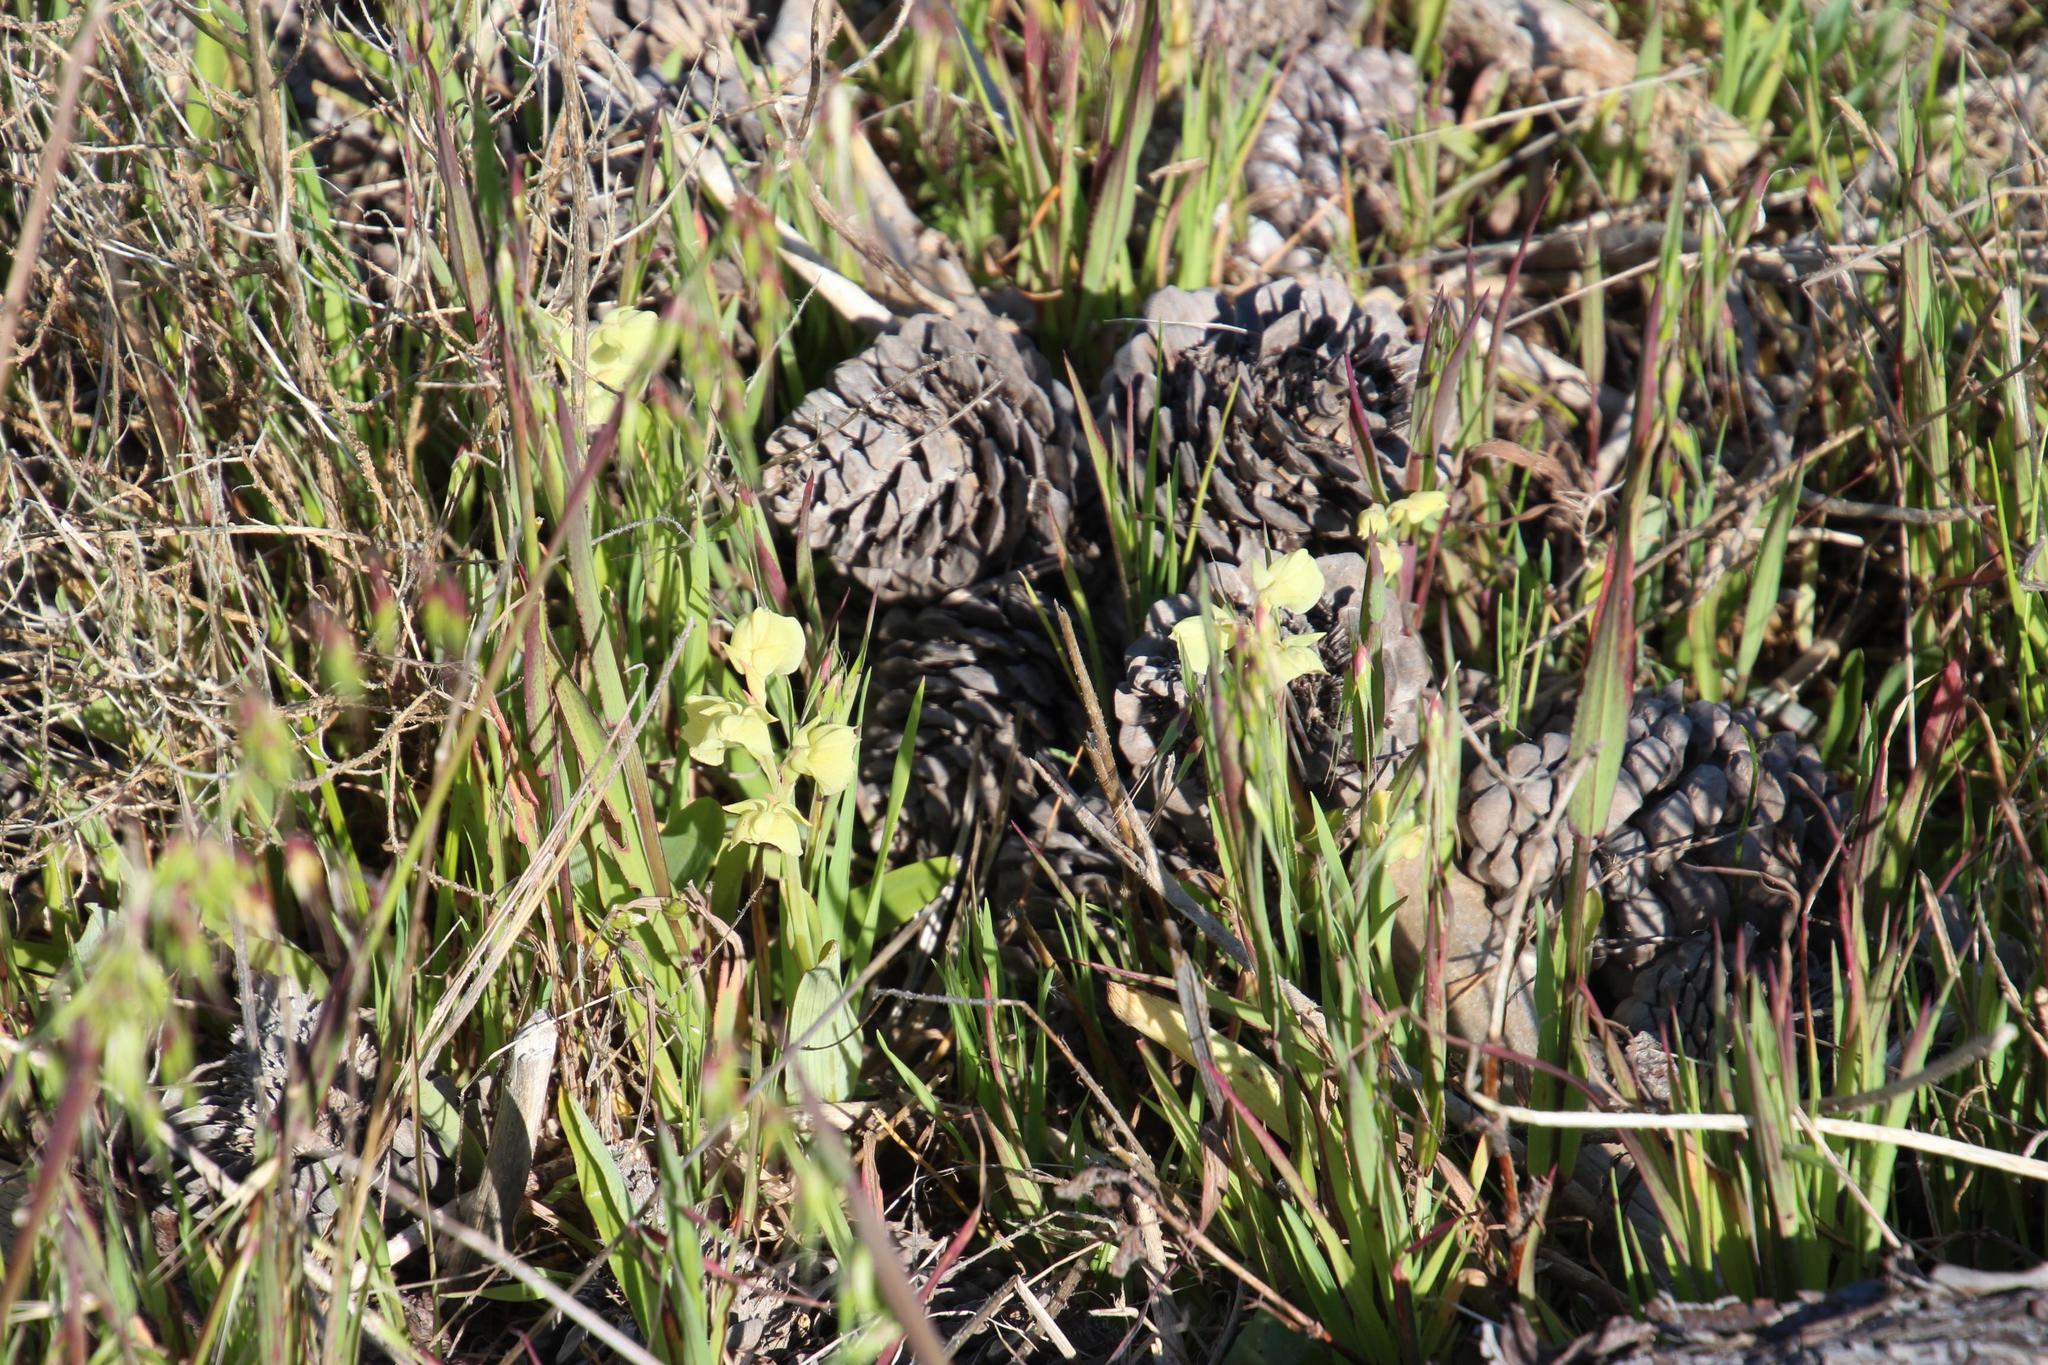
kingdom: Plantae
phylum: Tracheophyta
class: Liliopsida
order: Asparagales
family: Orchidaceae
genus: Pterygodium
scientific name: Pterygodium catholicum
